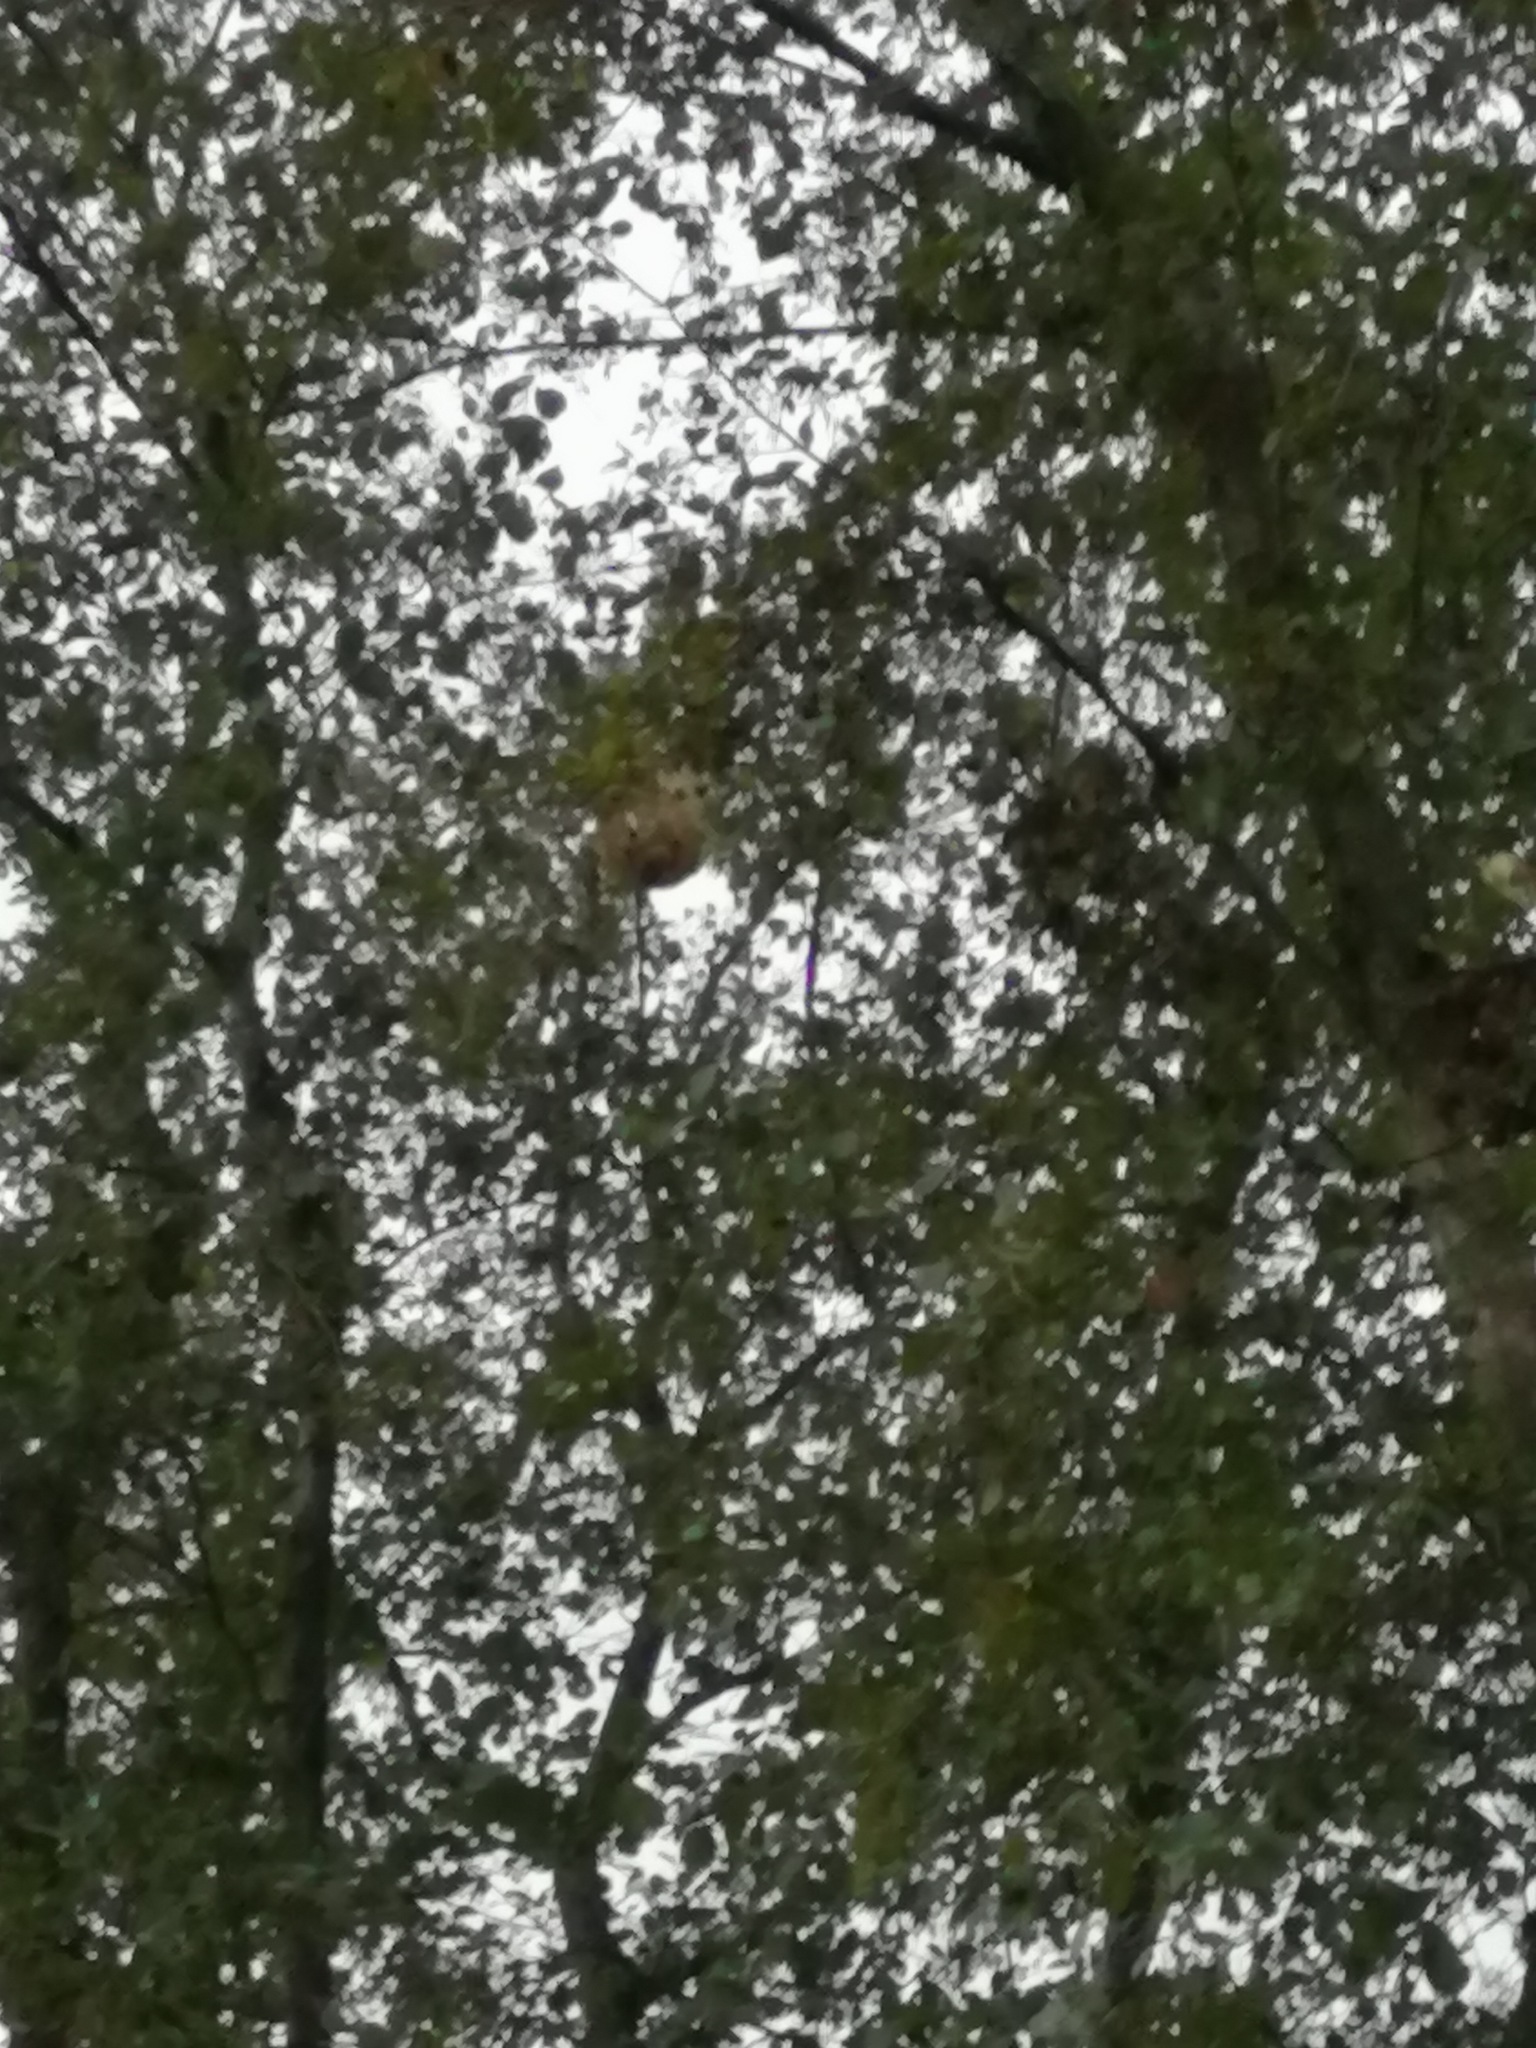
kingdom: Animalia
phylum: Arthropoda
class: Insecta
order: Hymenoptera
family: Vespidae
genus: Vespa
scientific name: Vespa velutina
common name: Asian hornet
